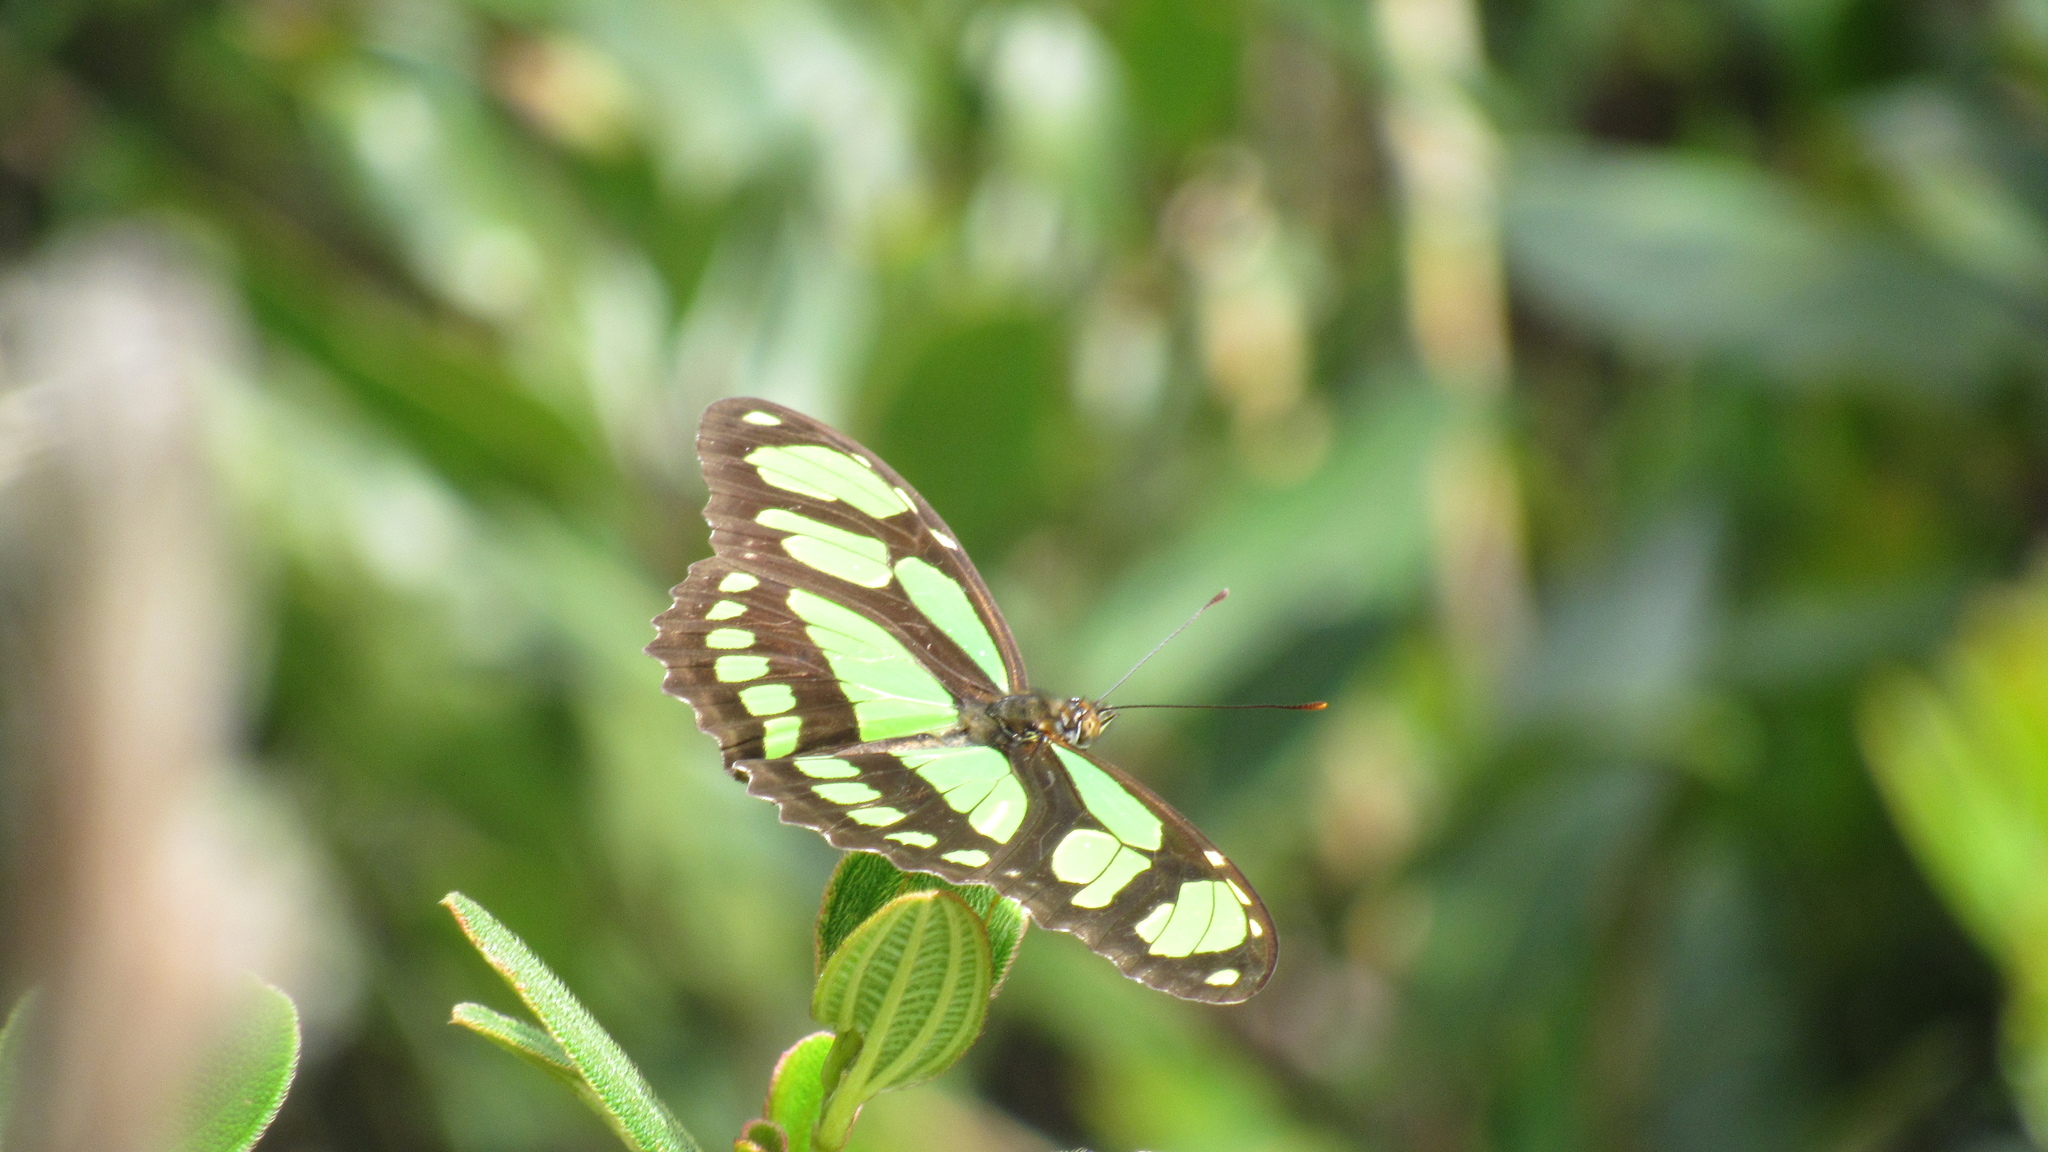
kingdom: Animalia
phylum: Arthropoda
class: Insecta
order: Lepidoptera
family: Nymphalidae
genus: Siproeta
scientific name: Siproeta stelenes
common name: Malachite
